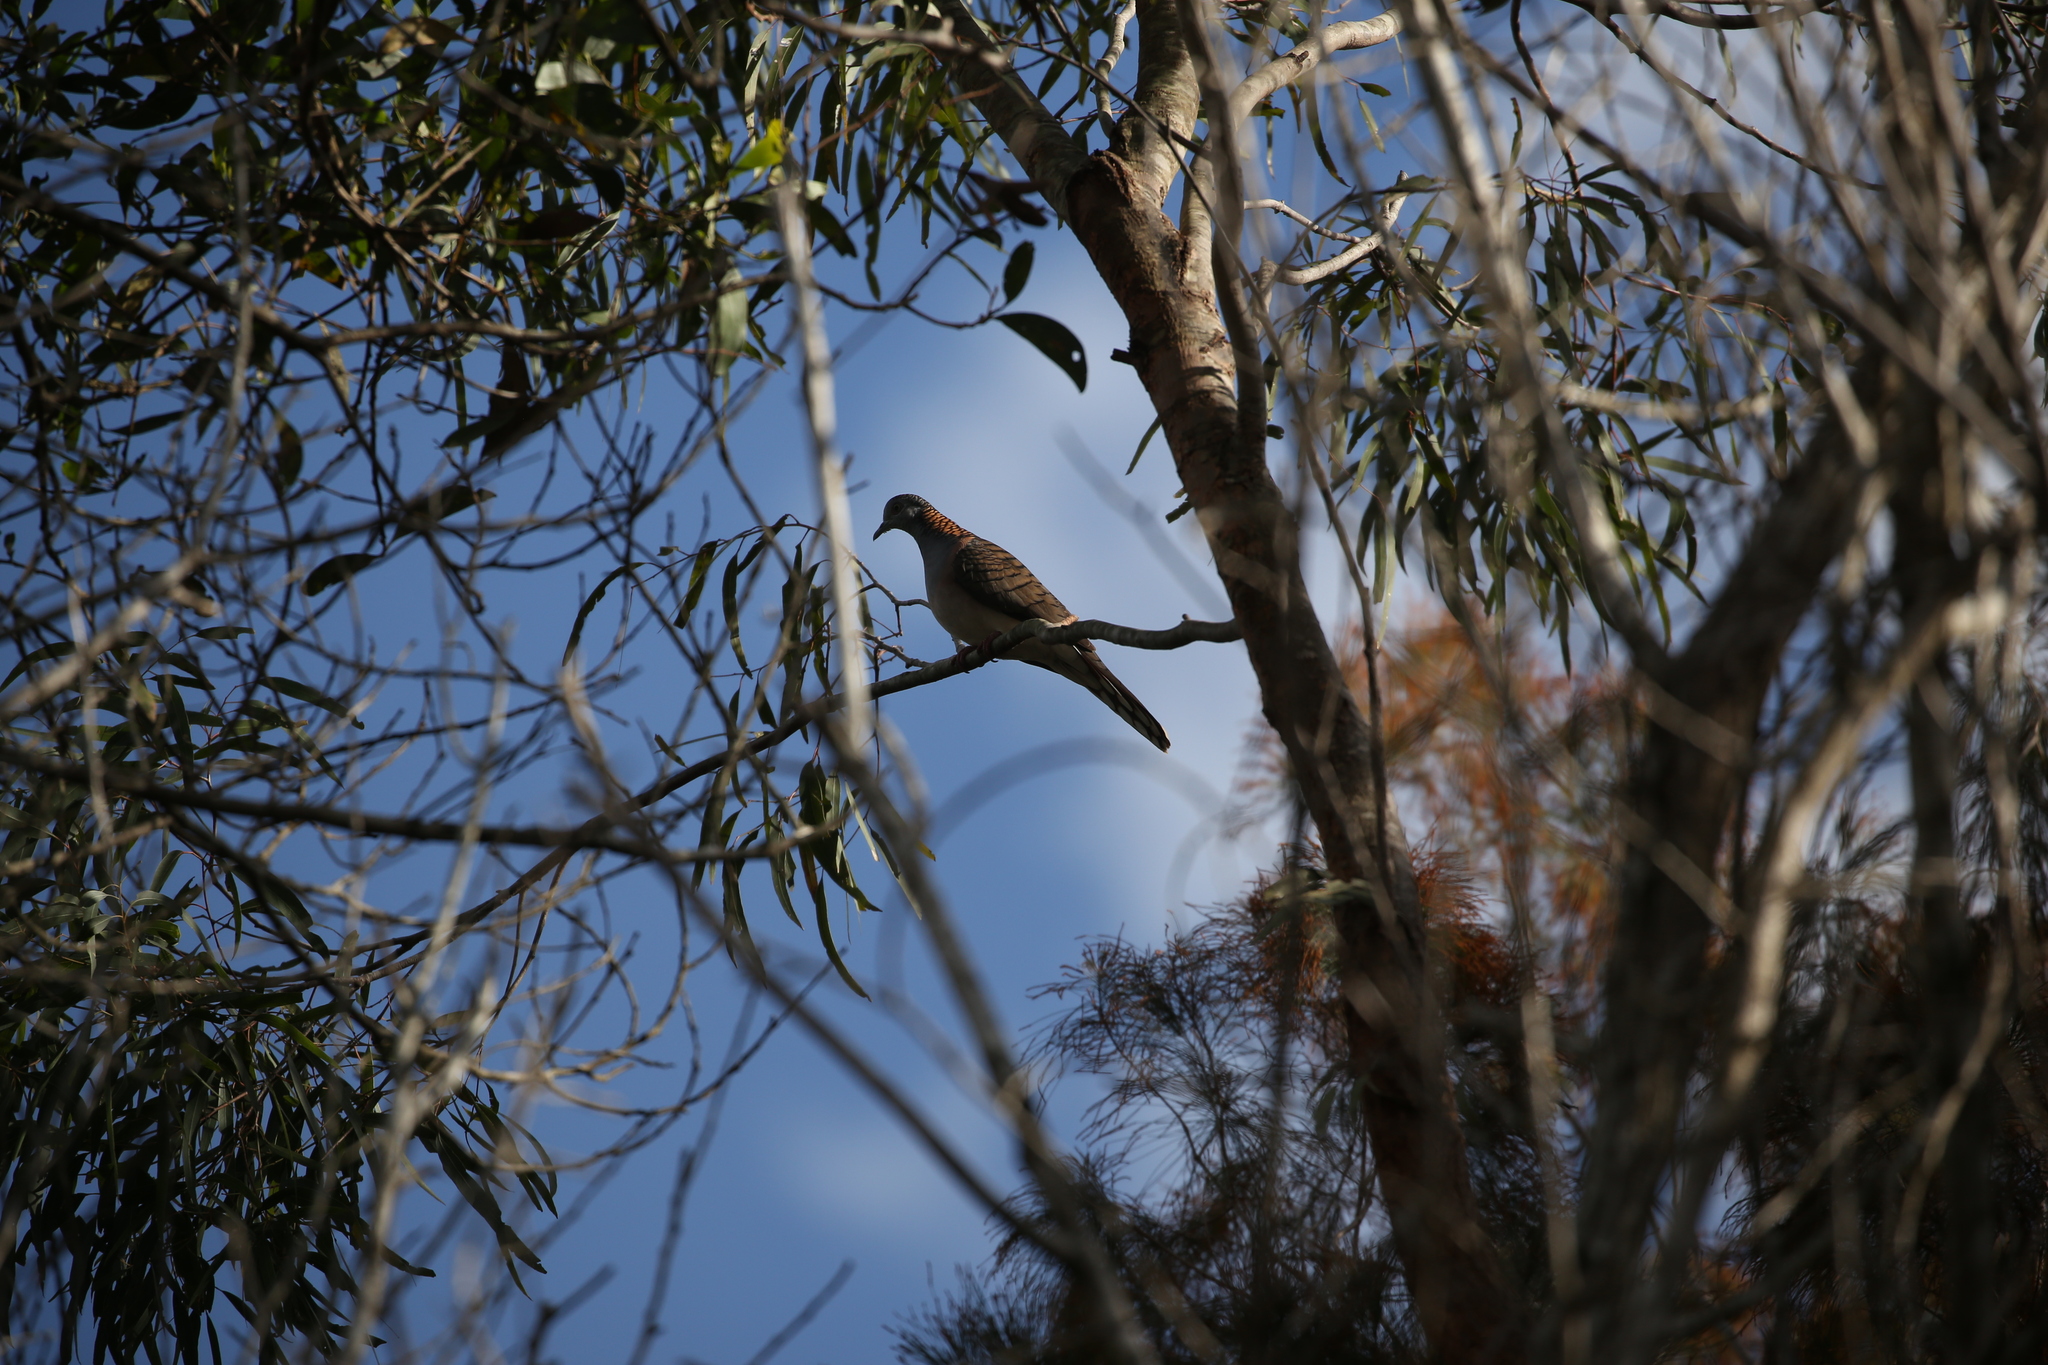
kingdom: Animalia
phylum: Chordata
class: Aves
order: Columbiformes
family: Columbidae
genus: Geopelia
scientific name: Geopelia humeralis
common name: Bar-shouldered dove
